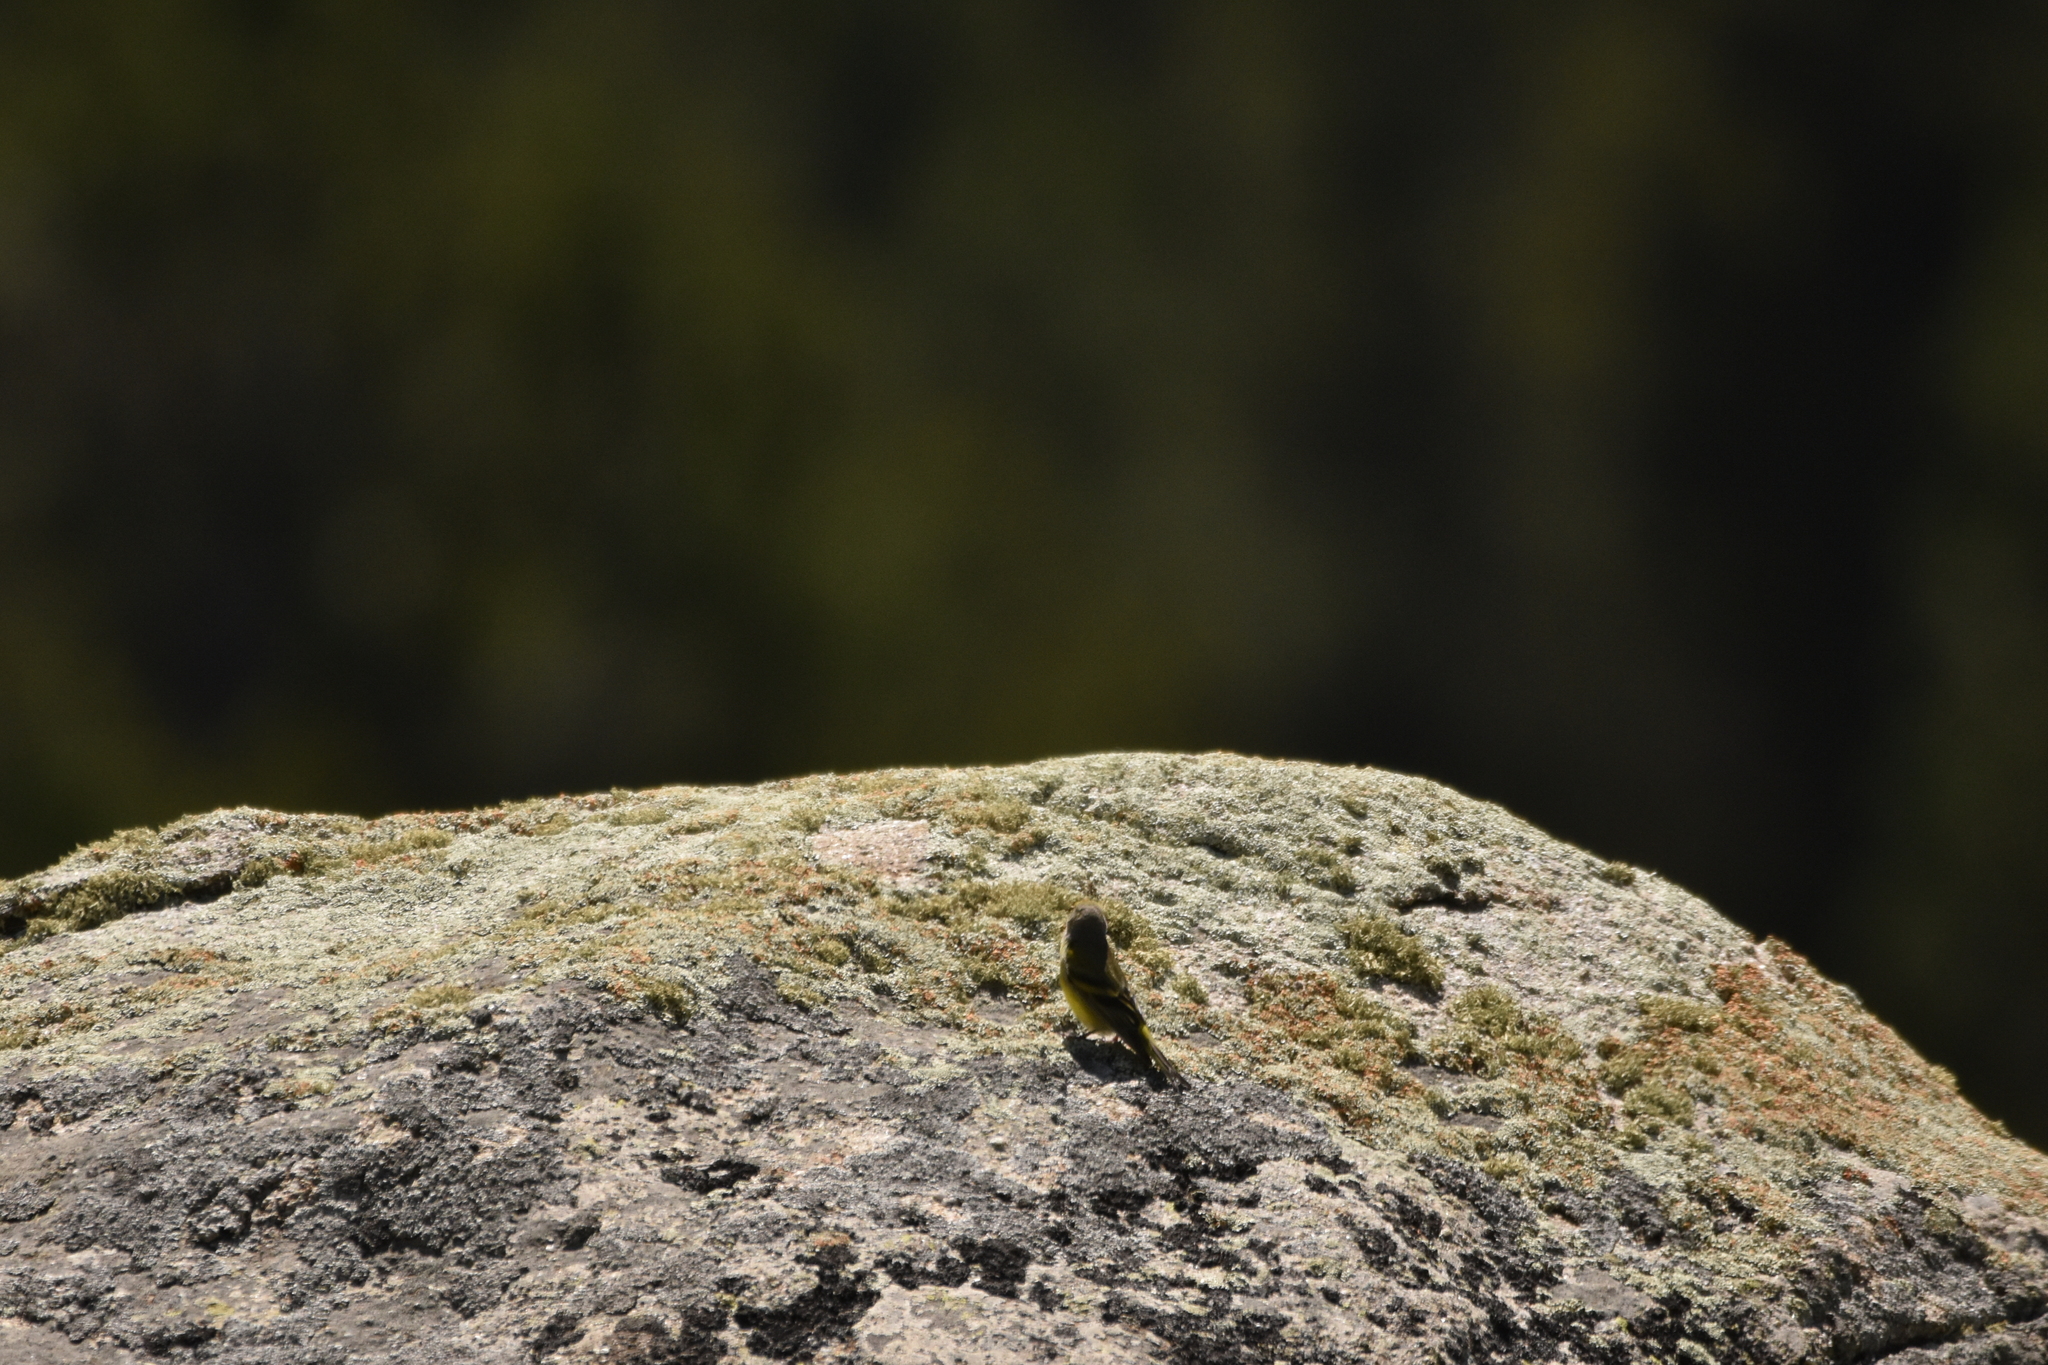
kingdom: Animalia
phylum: Chordata
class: Aves
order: Passeriformes
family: Fringillidae
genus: Carduelis
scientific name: Carduelis citrinella
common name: Citril finch
